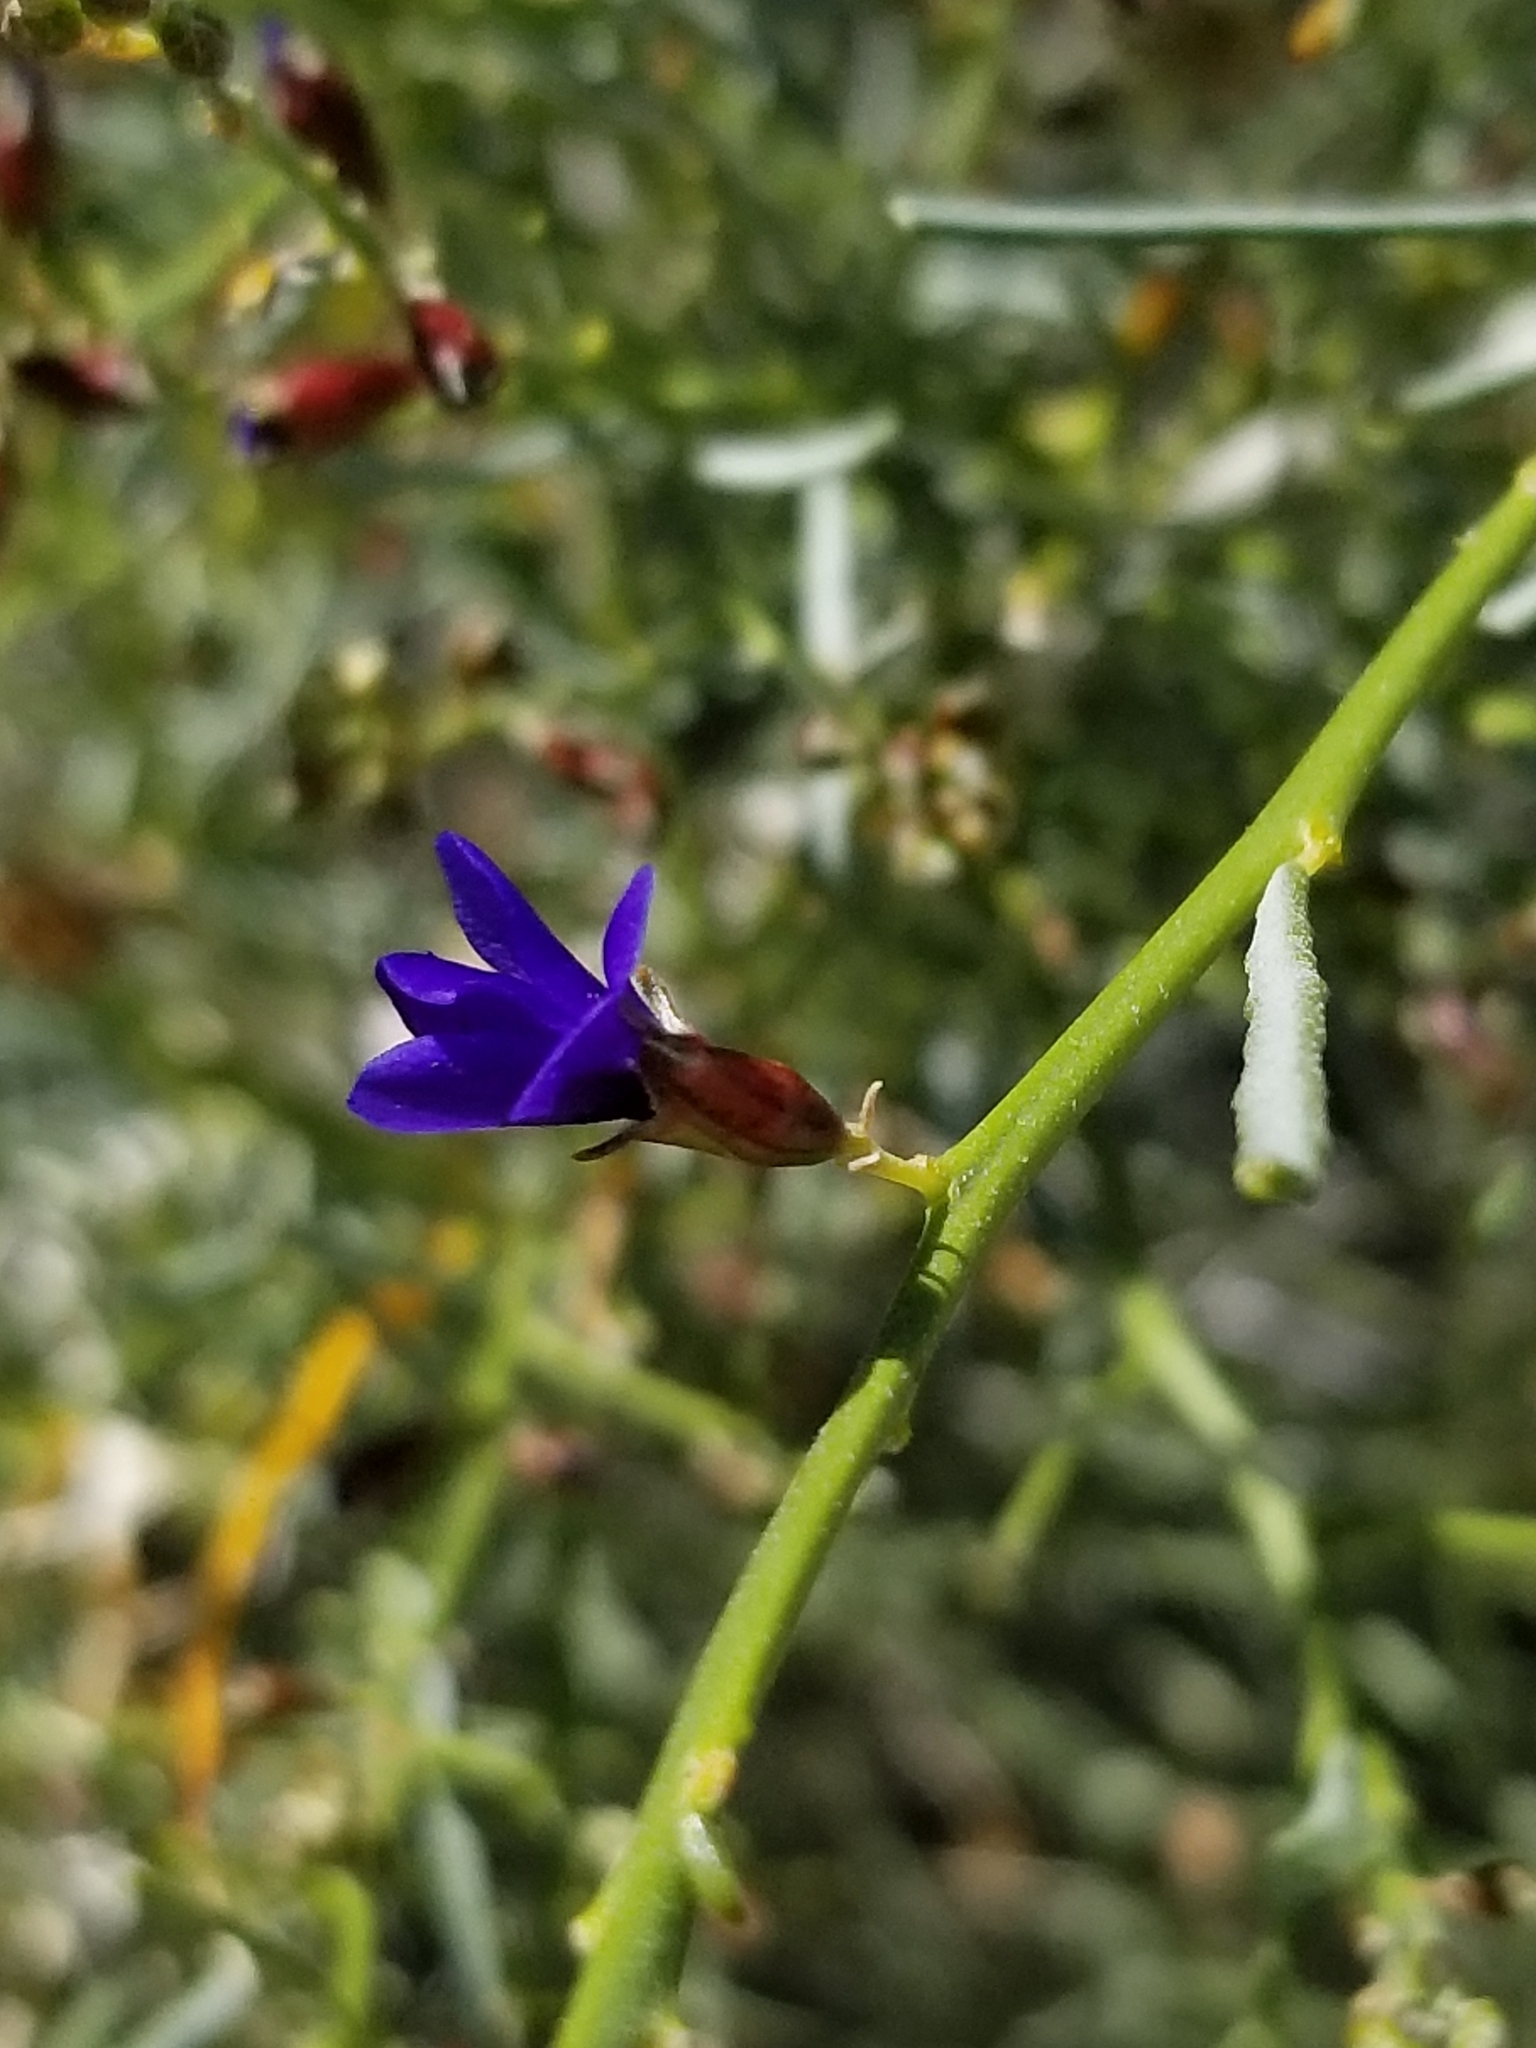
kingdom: Plantae
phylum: Tracheophyta
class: Magnoliopsida
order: Fabales
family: Fabaceae
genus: Psorothamnus
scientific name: Psorothamnus schottii
